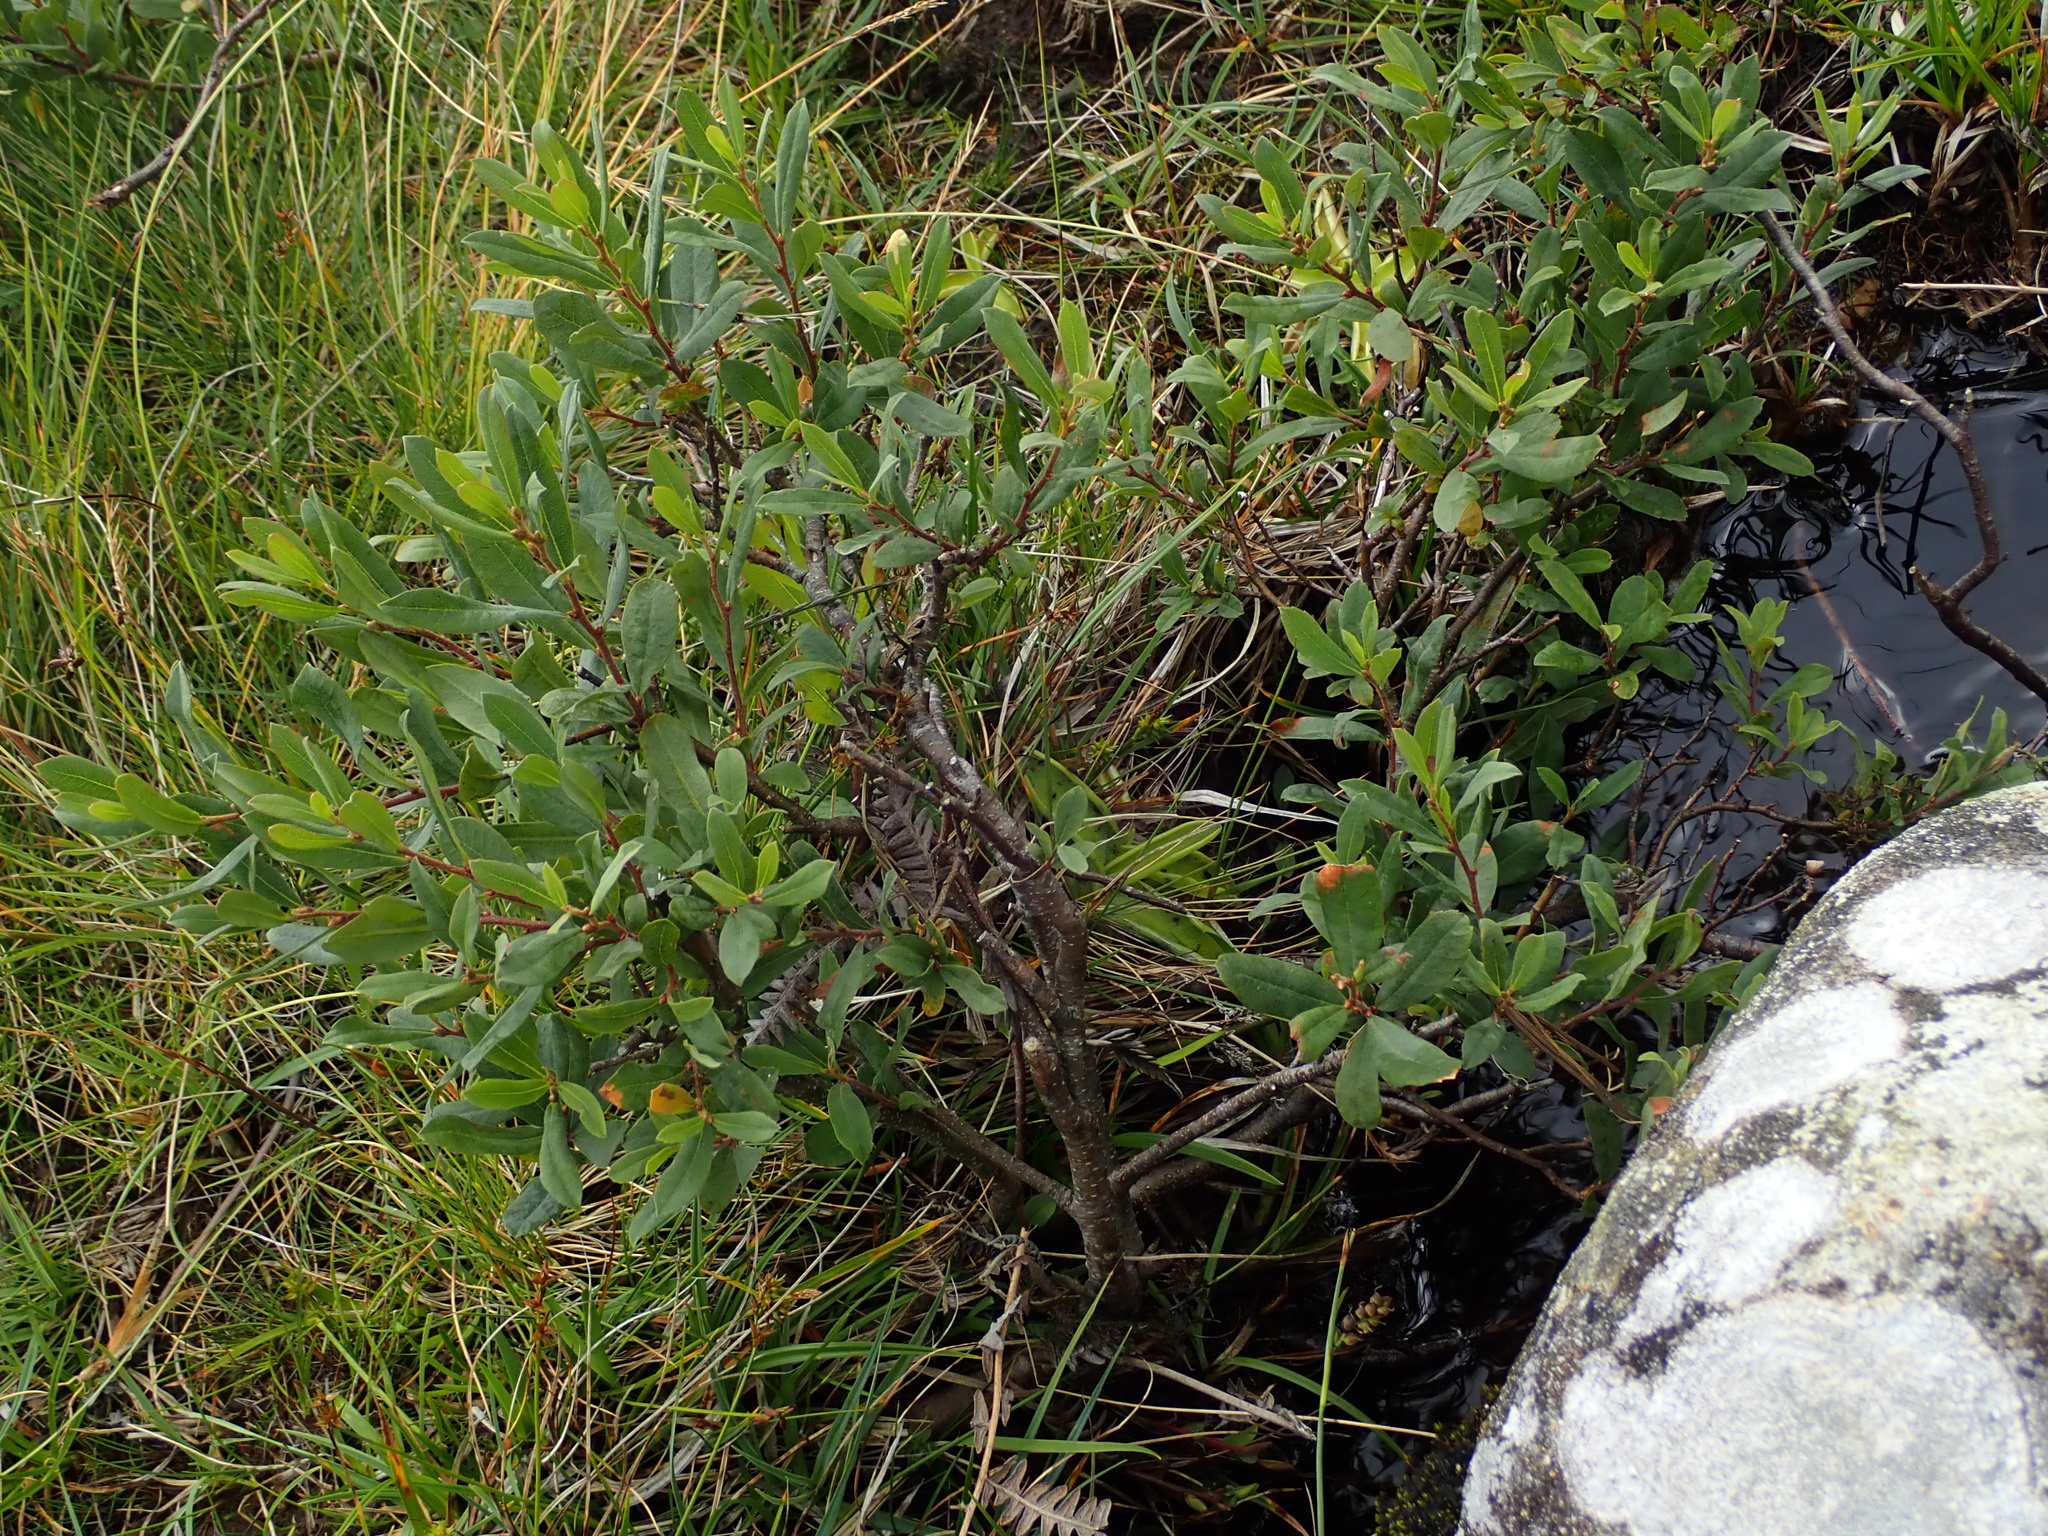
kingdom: Plantae
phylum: Tracheophyta
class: Magnoliopsida
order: Fagales
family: Myricaceae
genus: Myrica
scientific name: Myrica gale
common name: Sweet gale
